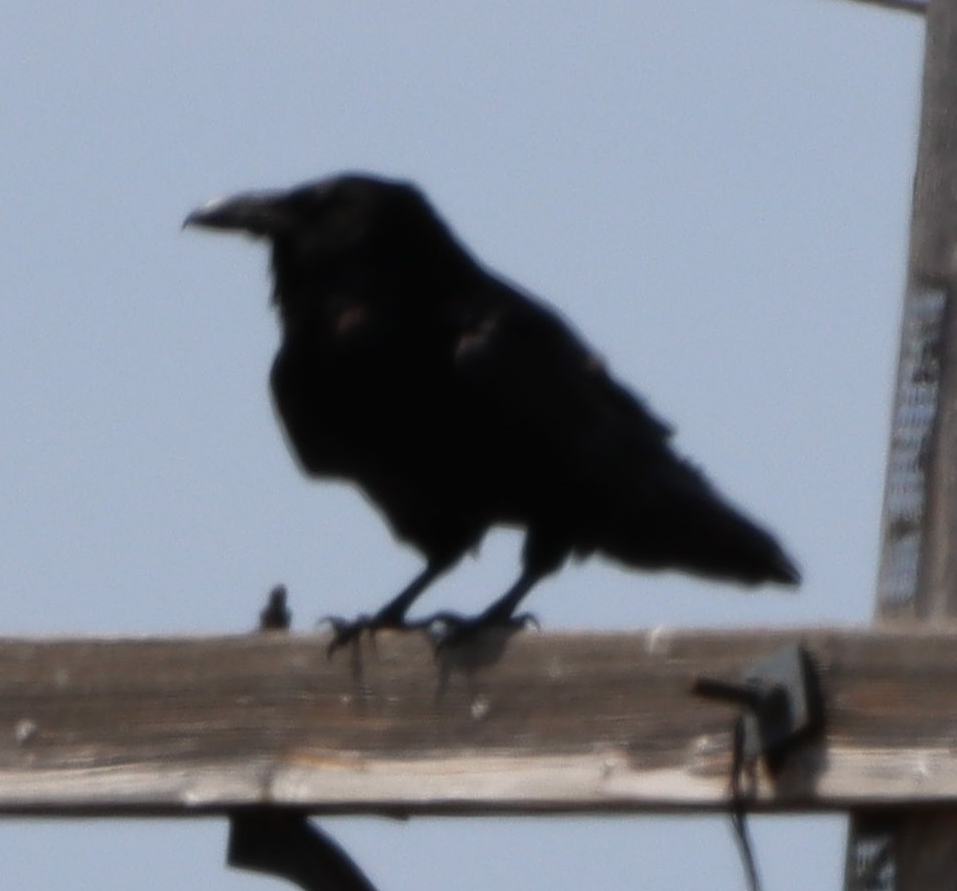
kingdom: Animalia
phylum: Chordata
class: Aves
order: Passeriformes
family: Corvidae
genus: Corvus
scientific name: Corvus corax
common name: Common raven
